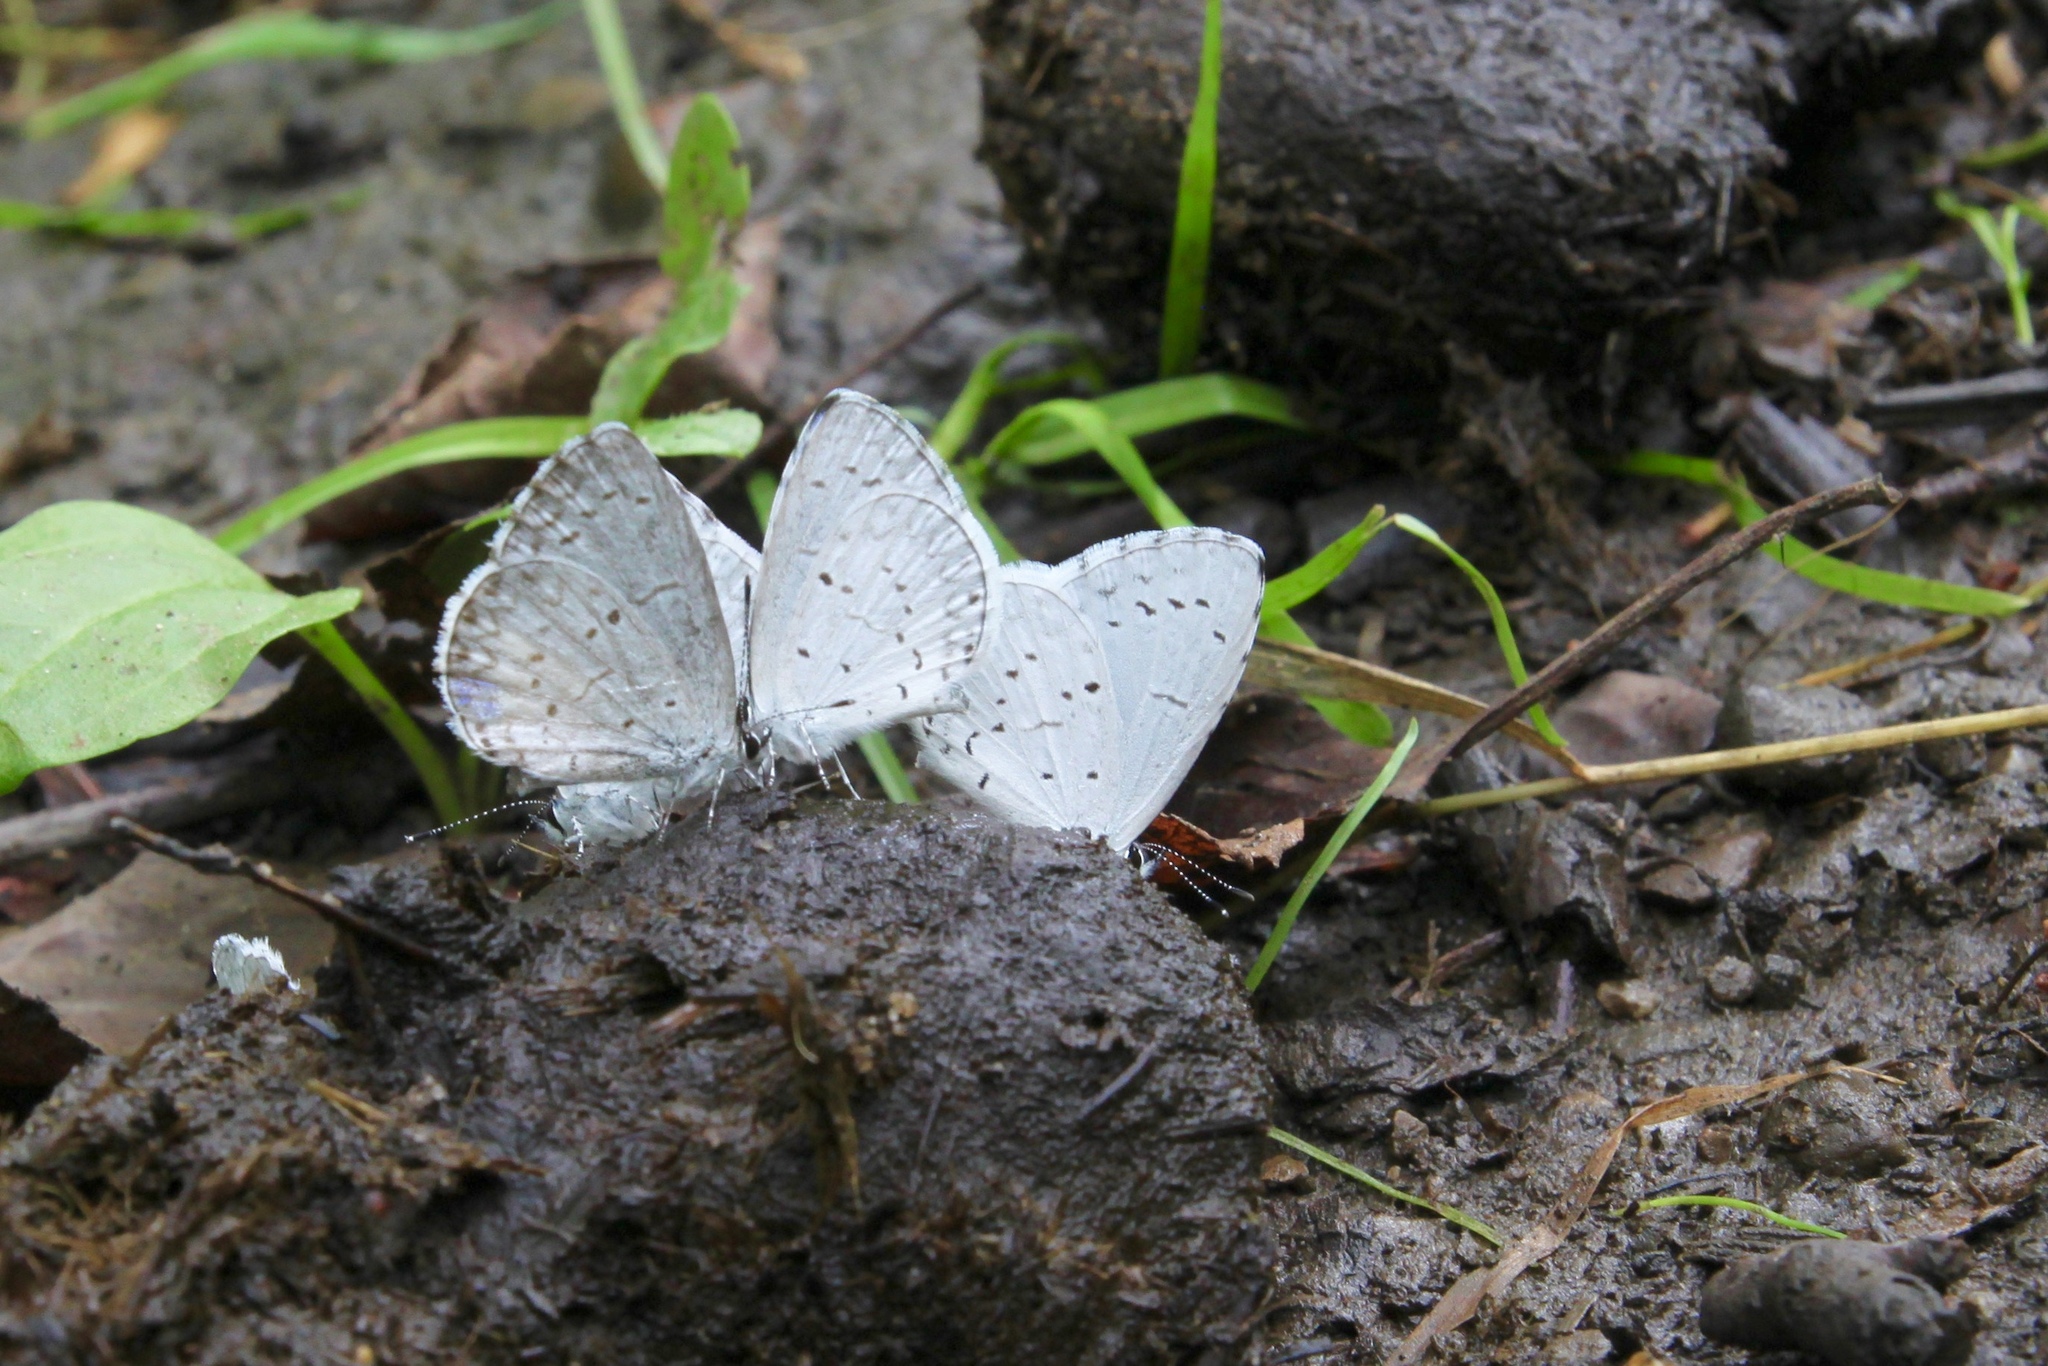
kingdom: Animalia
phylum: Arthropoda
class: Insecta
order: Lepidoptera
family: Lycaenidae
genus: Cyaniris
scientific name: Cyaniris neglecta
